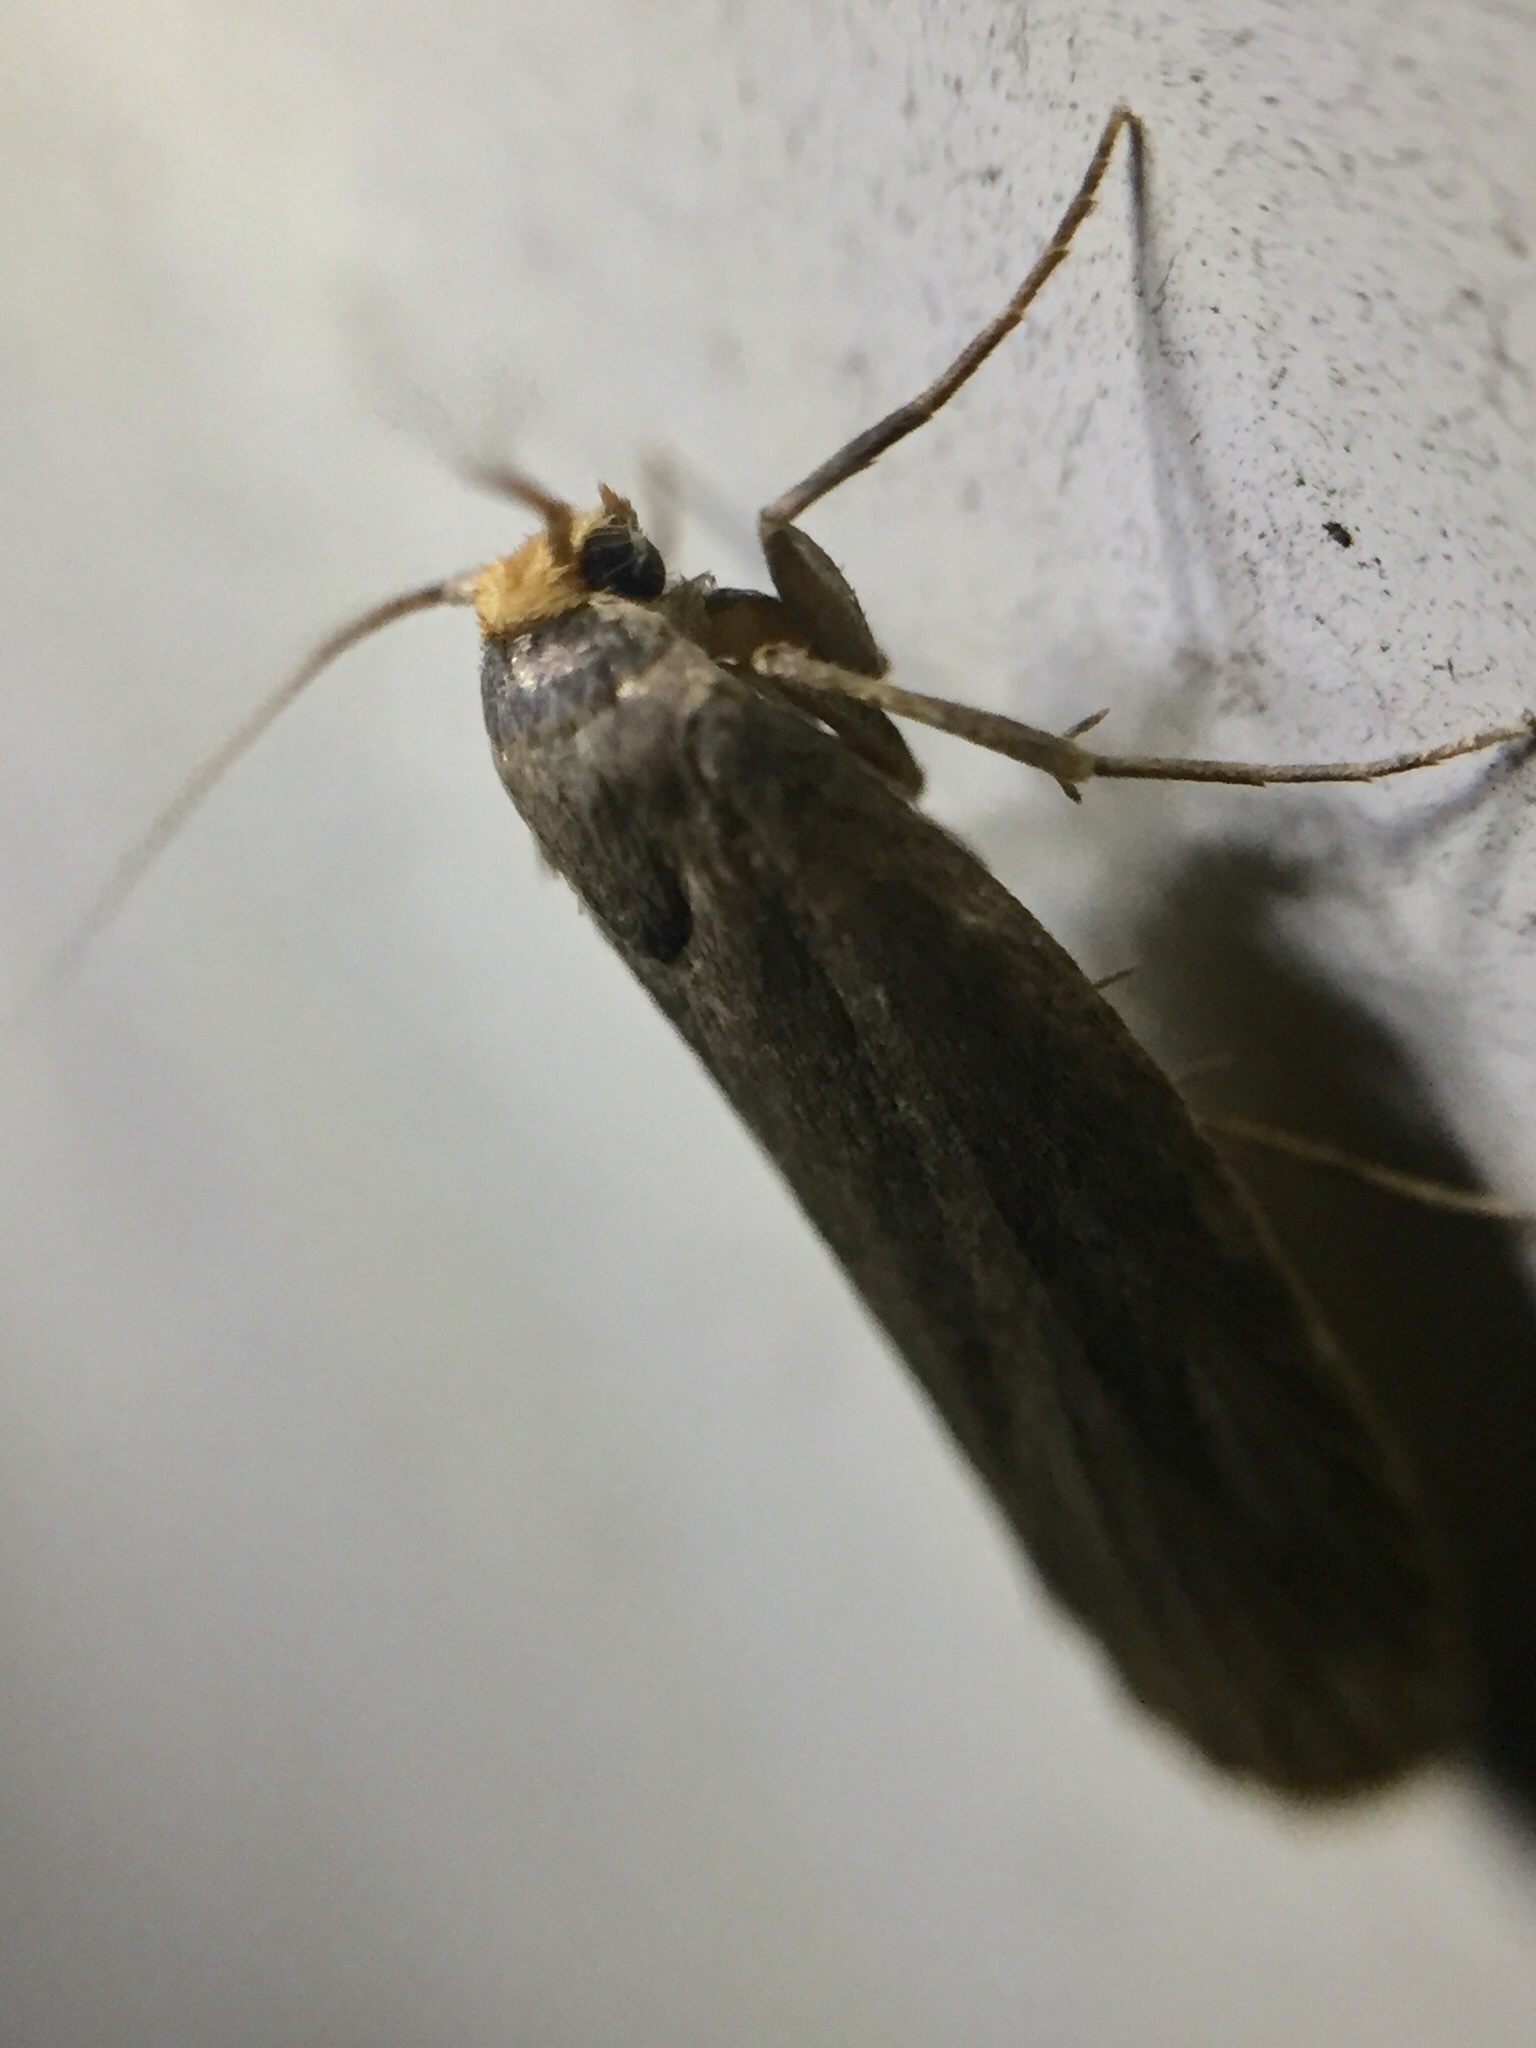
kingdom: Animalia
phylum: Arthropoda
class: Insecta
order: Lepidoptera
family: Pyralidae
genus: Achroia
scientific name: Achroia grisella
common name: Lesser wax moth
